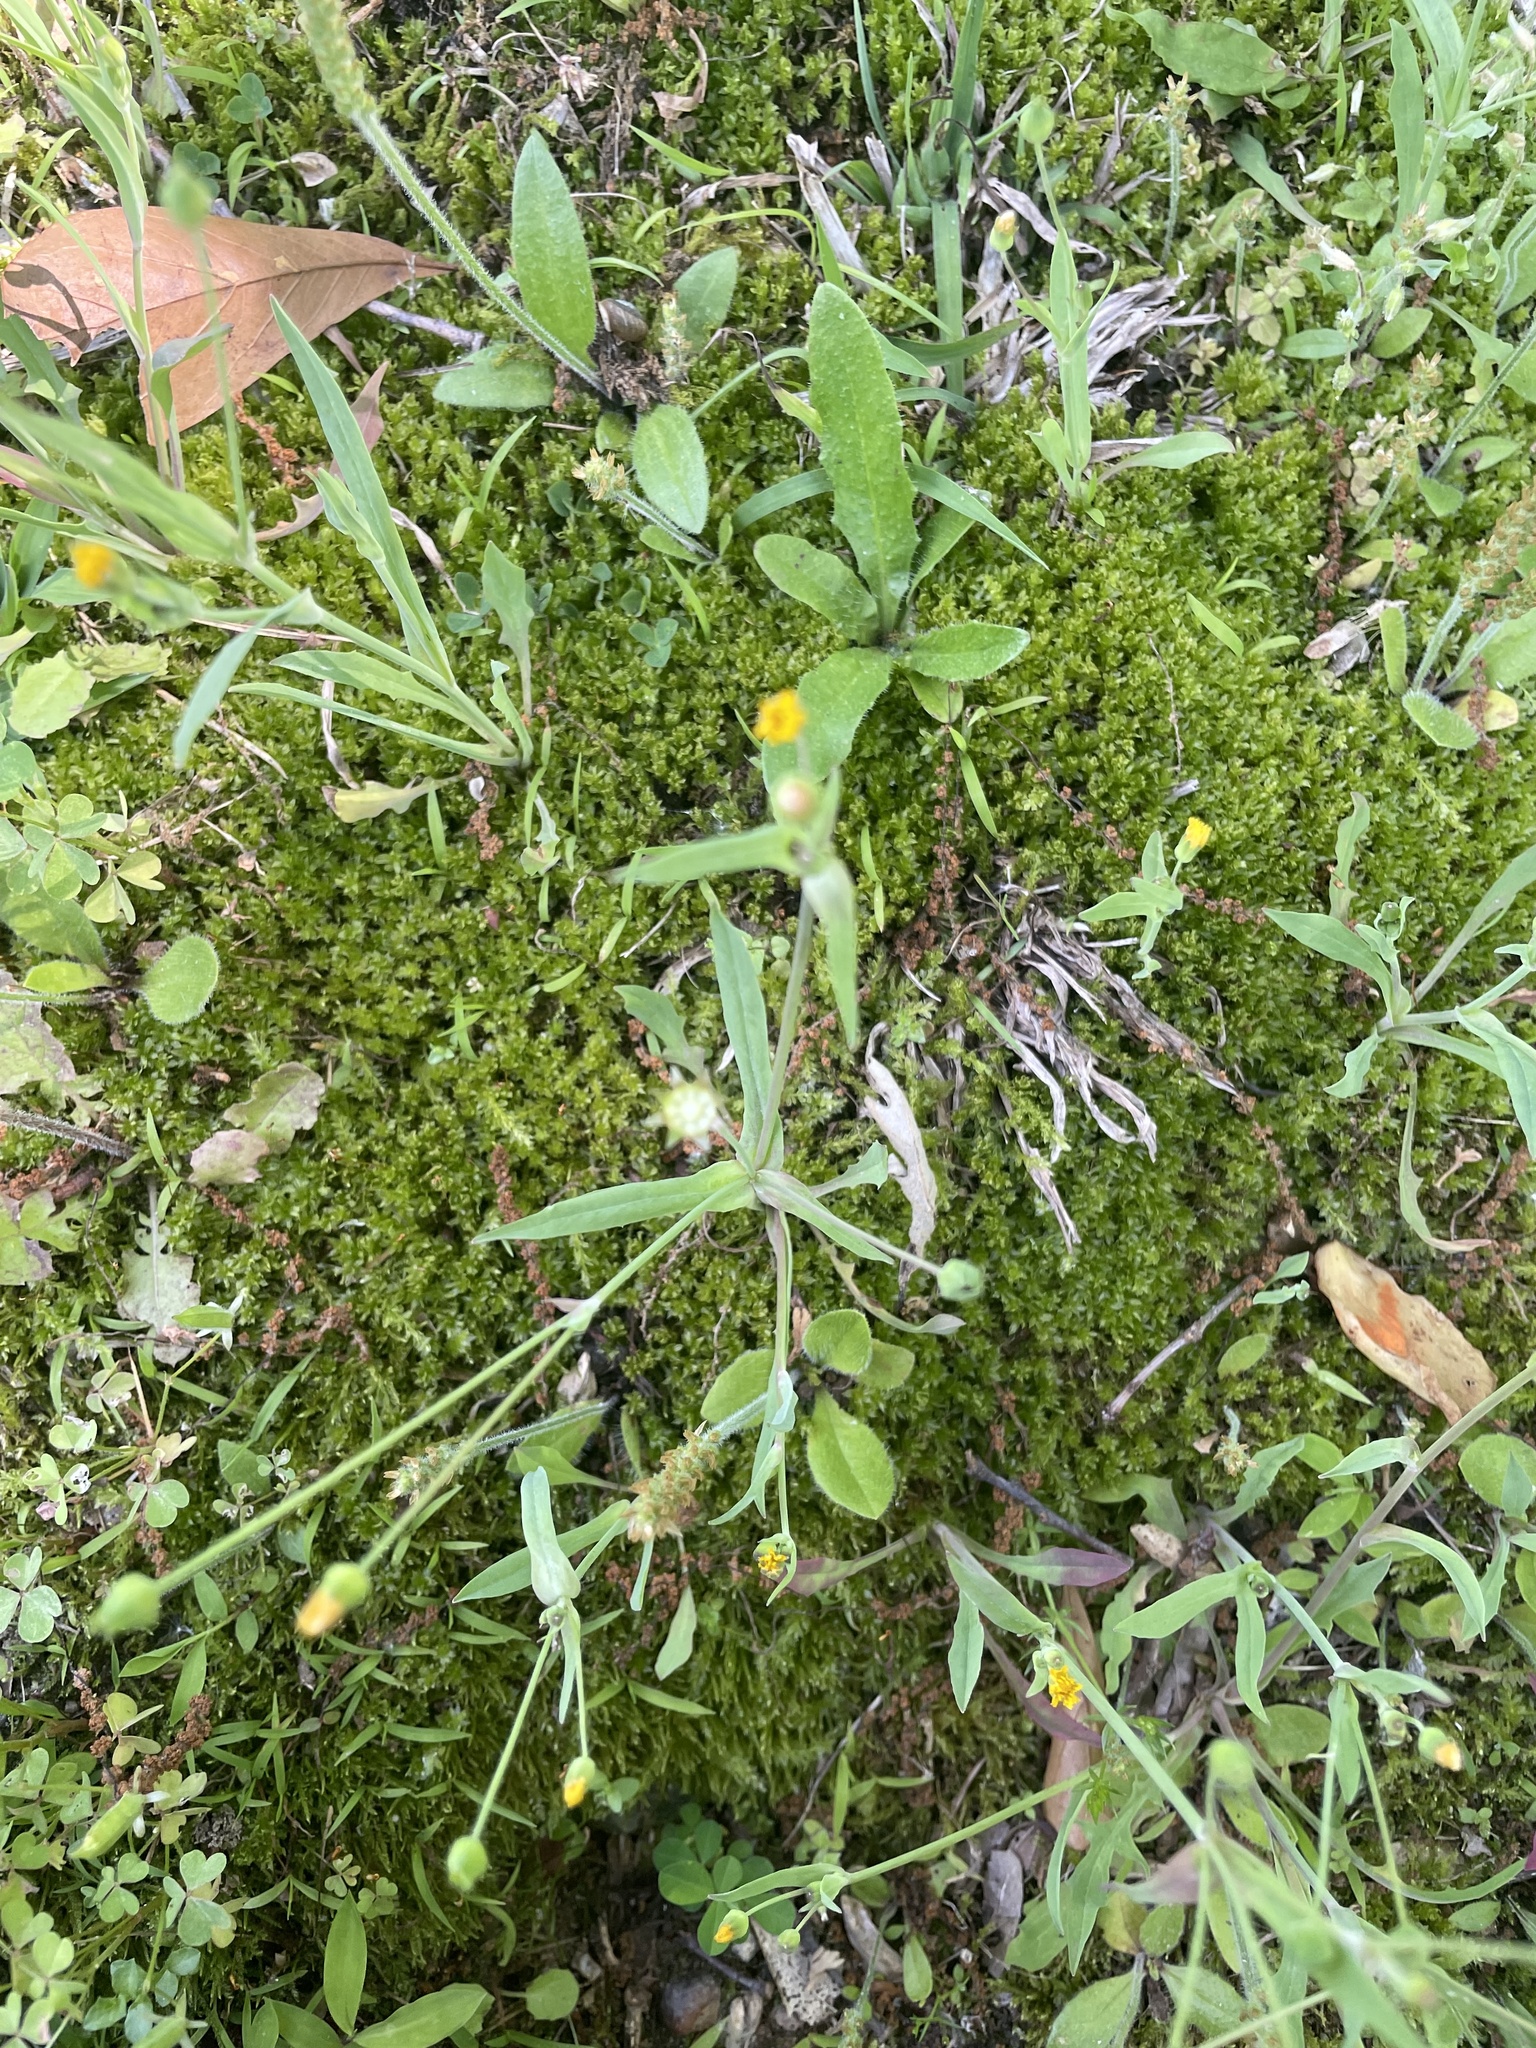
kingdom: Plantae
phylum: Tracheophyta
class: Magnoliopsida
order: Asterales
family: Asteraceae
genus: Krigia
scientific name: Krigia cespitosa
